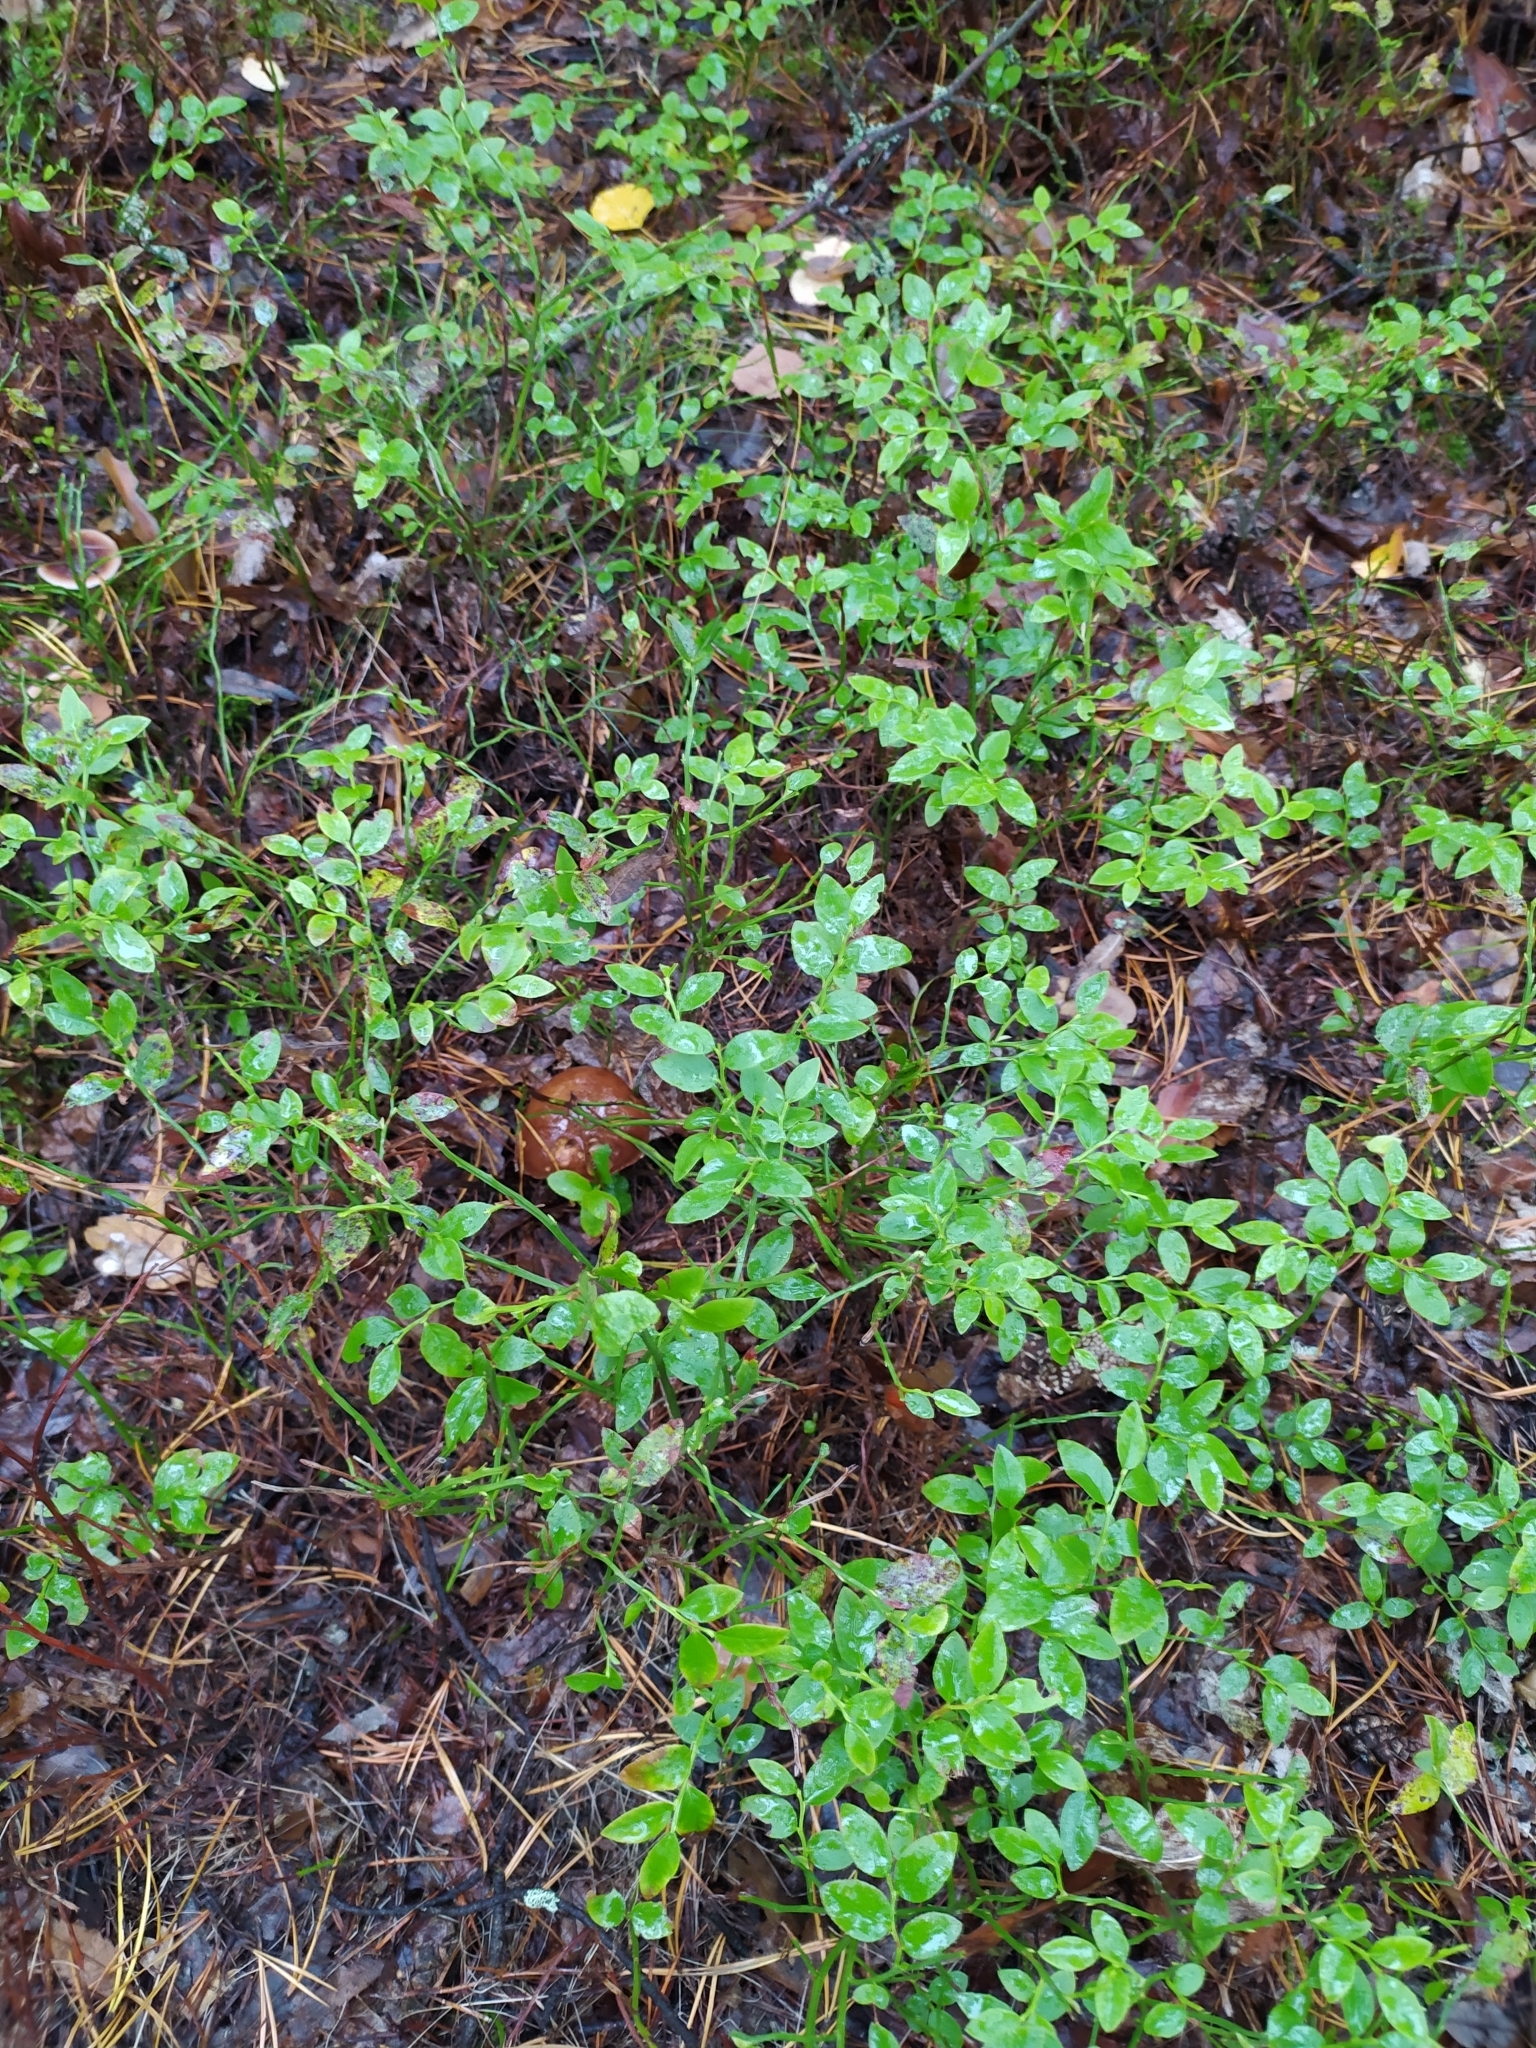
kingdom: Plantae
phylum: Tracheophyta
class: Magnoliopsida
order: Ericales
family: Ericaceae
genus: Vaccinium
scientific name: Vaccinium myrtillus
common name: Bilberry
